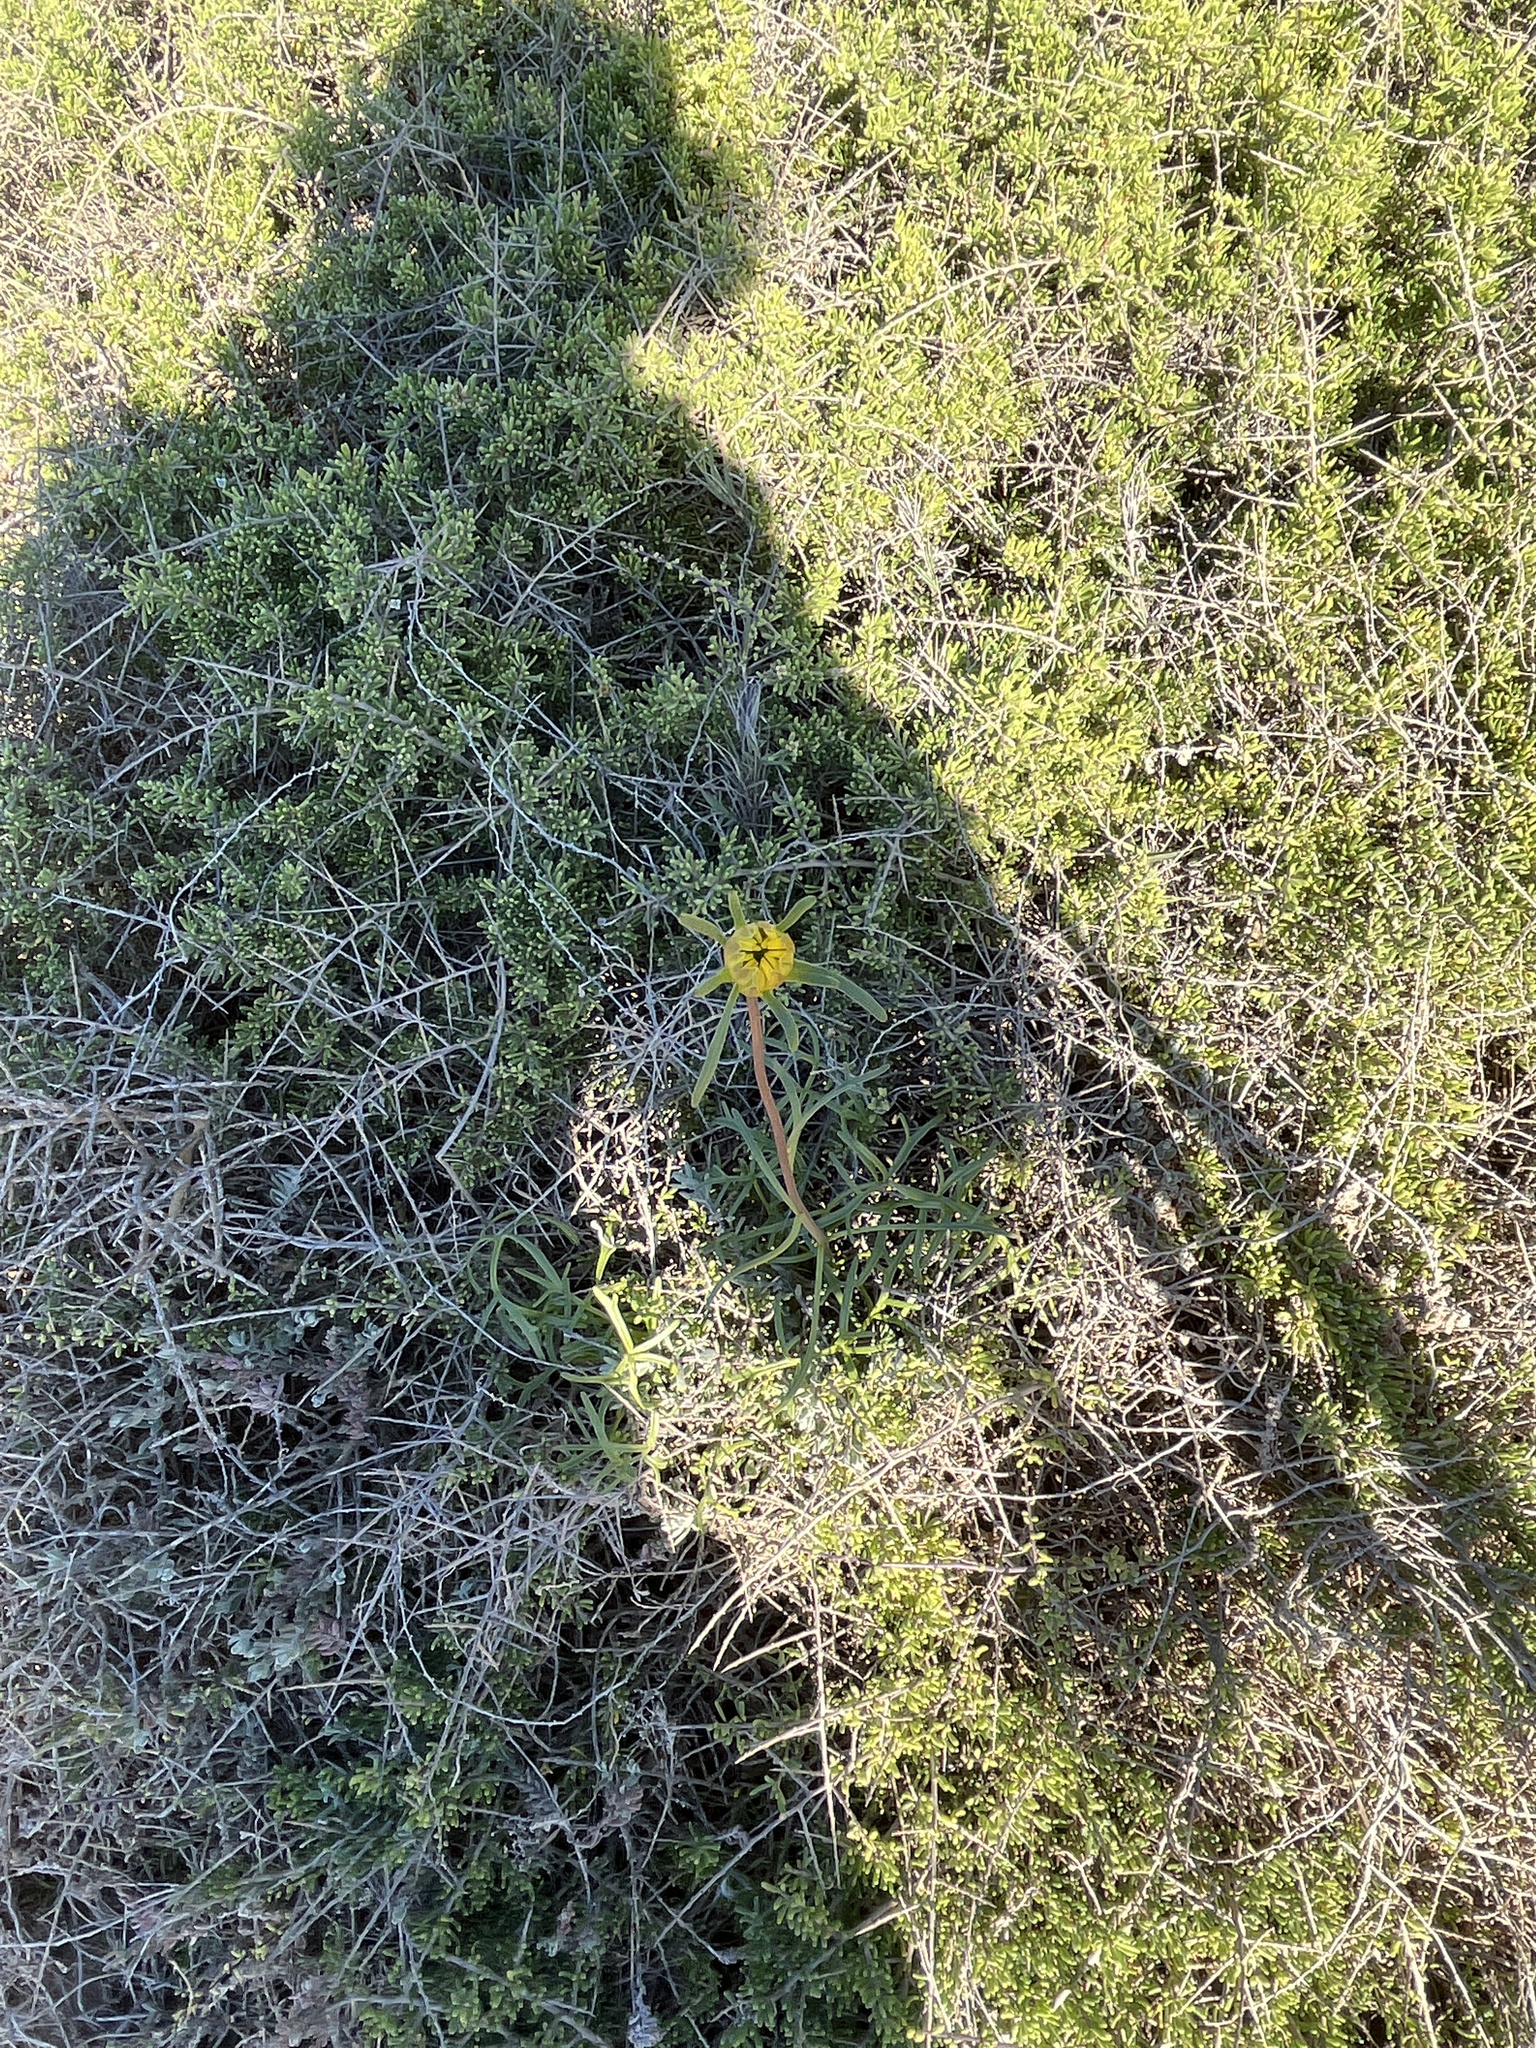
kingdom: Plantae
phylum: Tracheophyta
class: Magnoliopsida
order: Asterales
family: Asteraceae
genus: Coreopsis
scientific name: Coreopsis maritima
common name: Sea-dahlia
